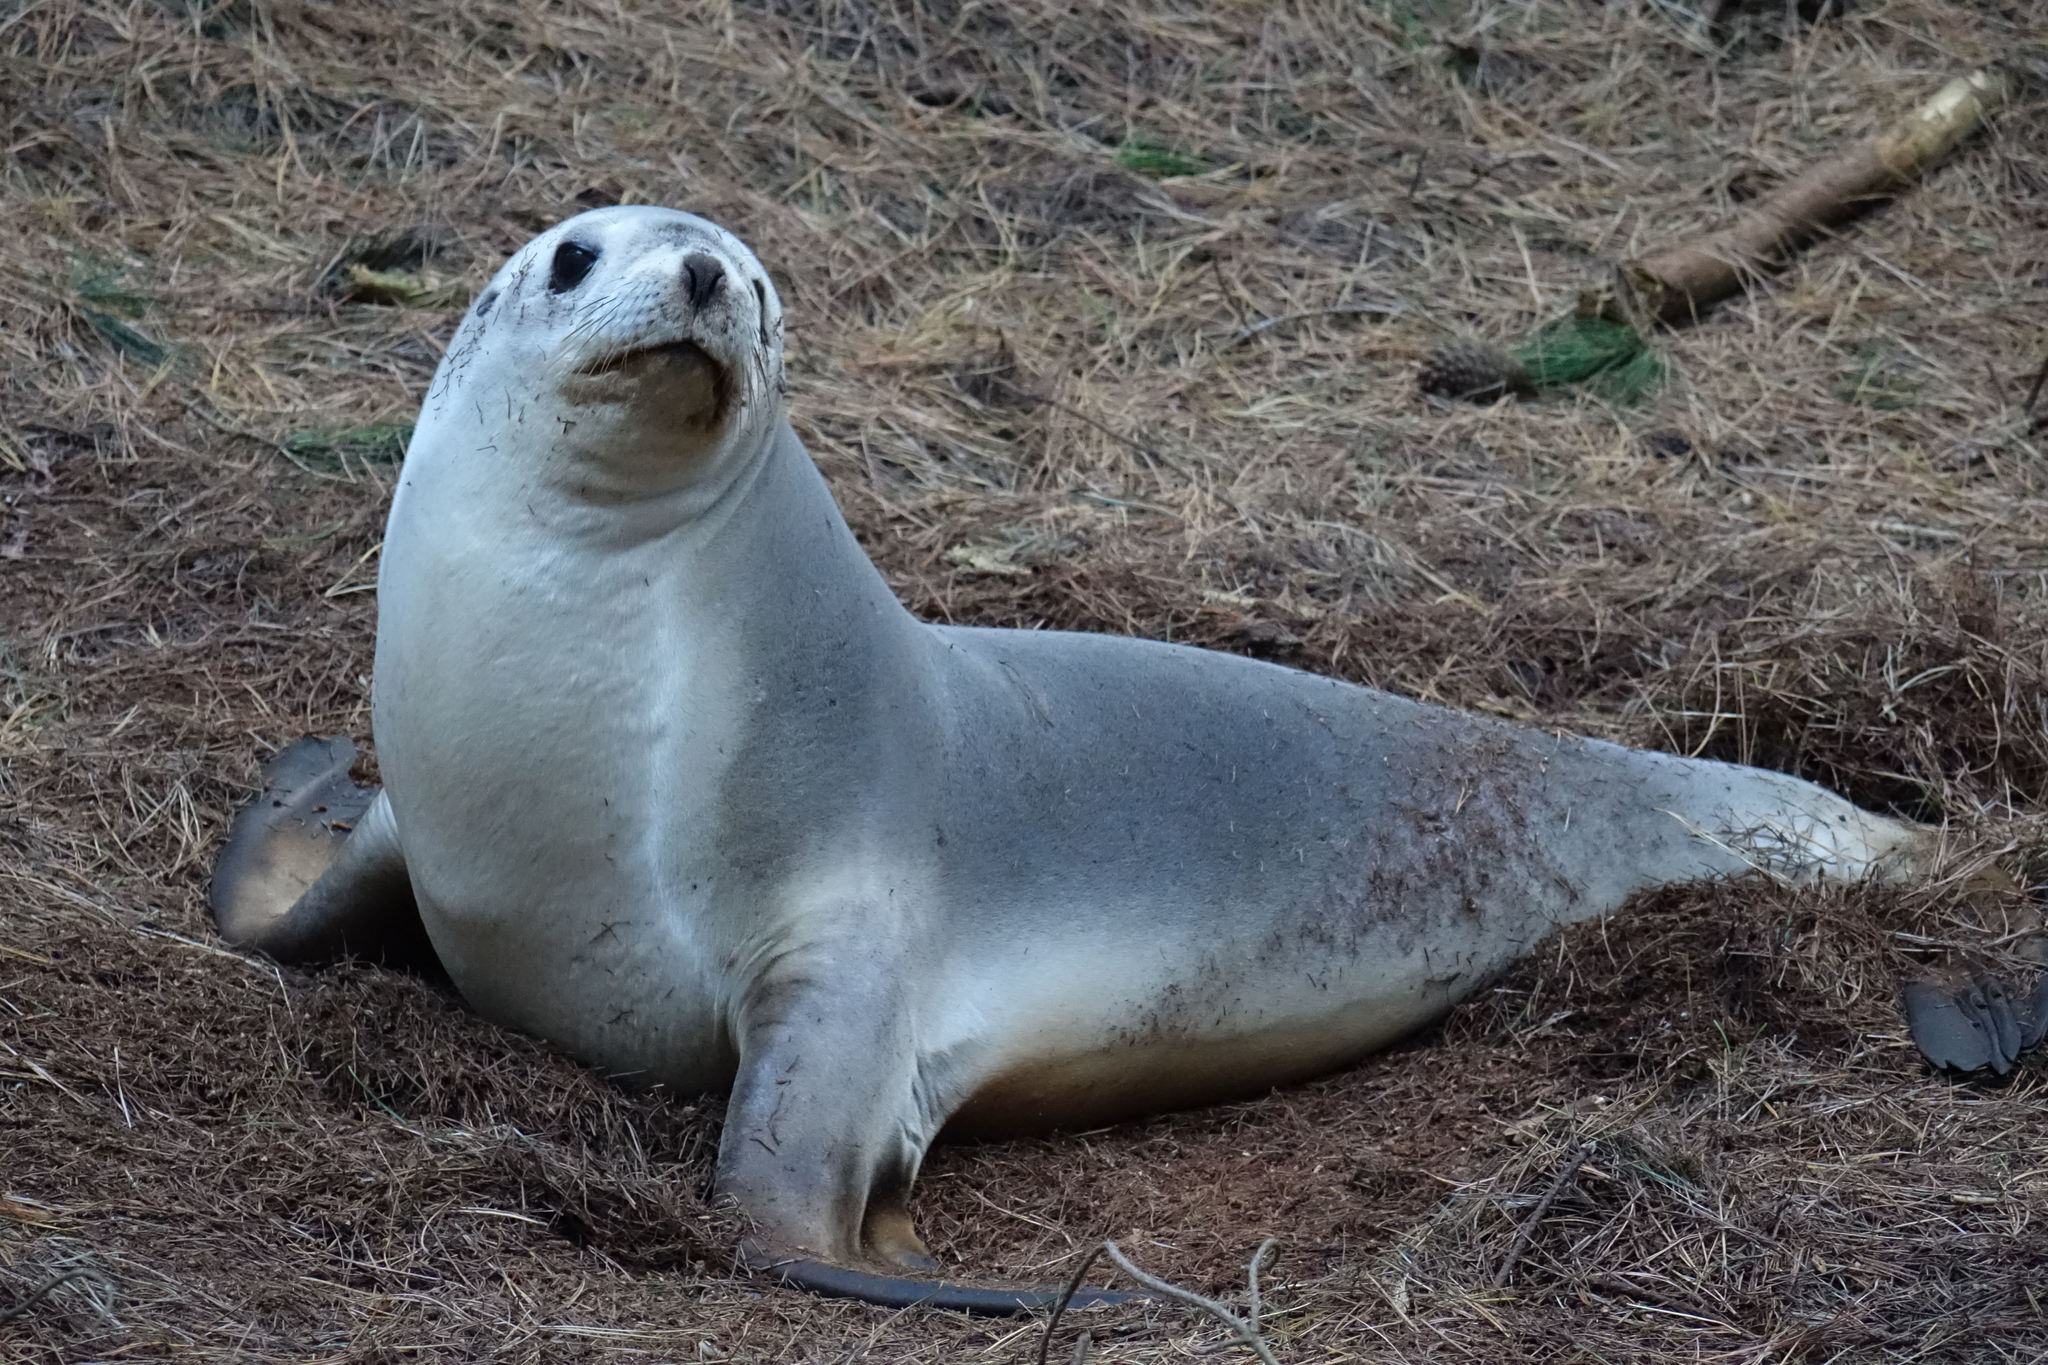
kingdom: Animalia
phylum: Chordata
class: Mammalia
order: Carnivora
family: Otariidae
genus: Phocarctos
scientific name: Phocarctos hookeri
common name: New zealand sea lion
